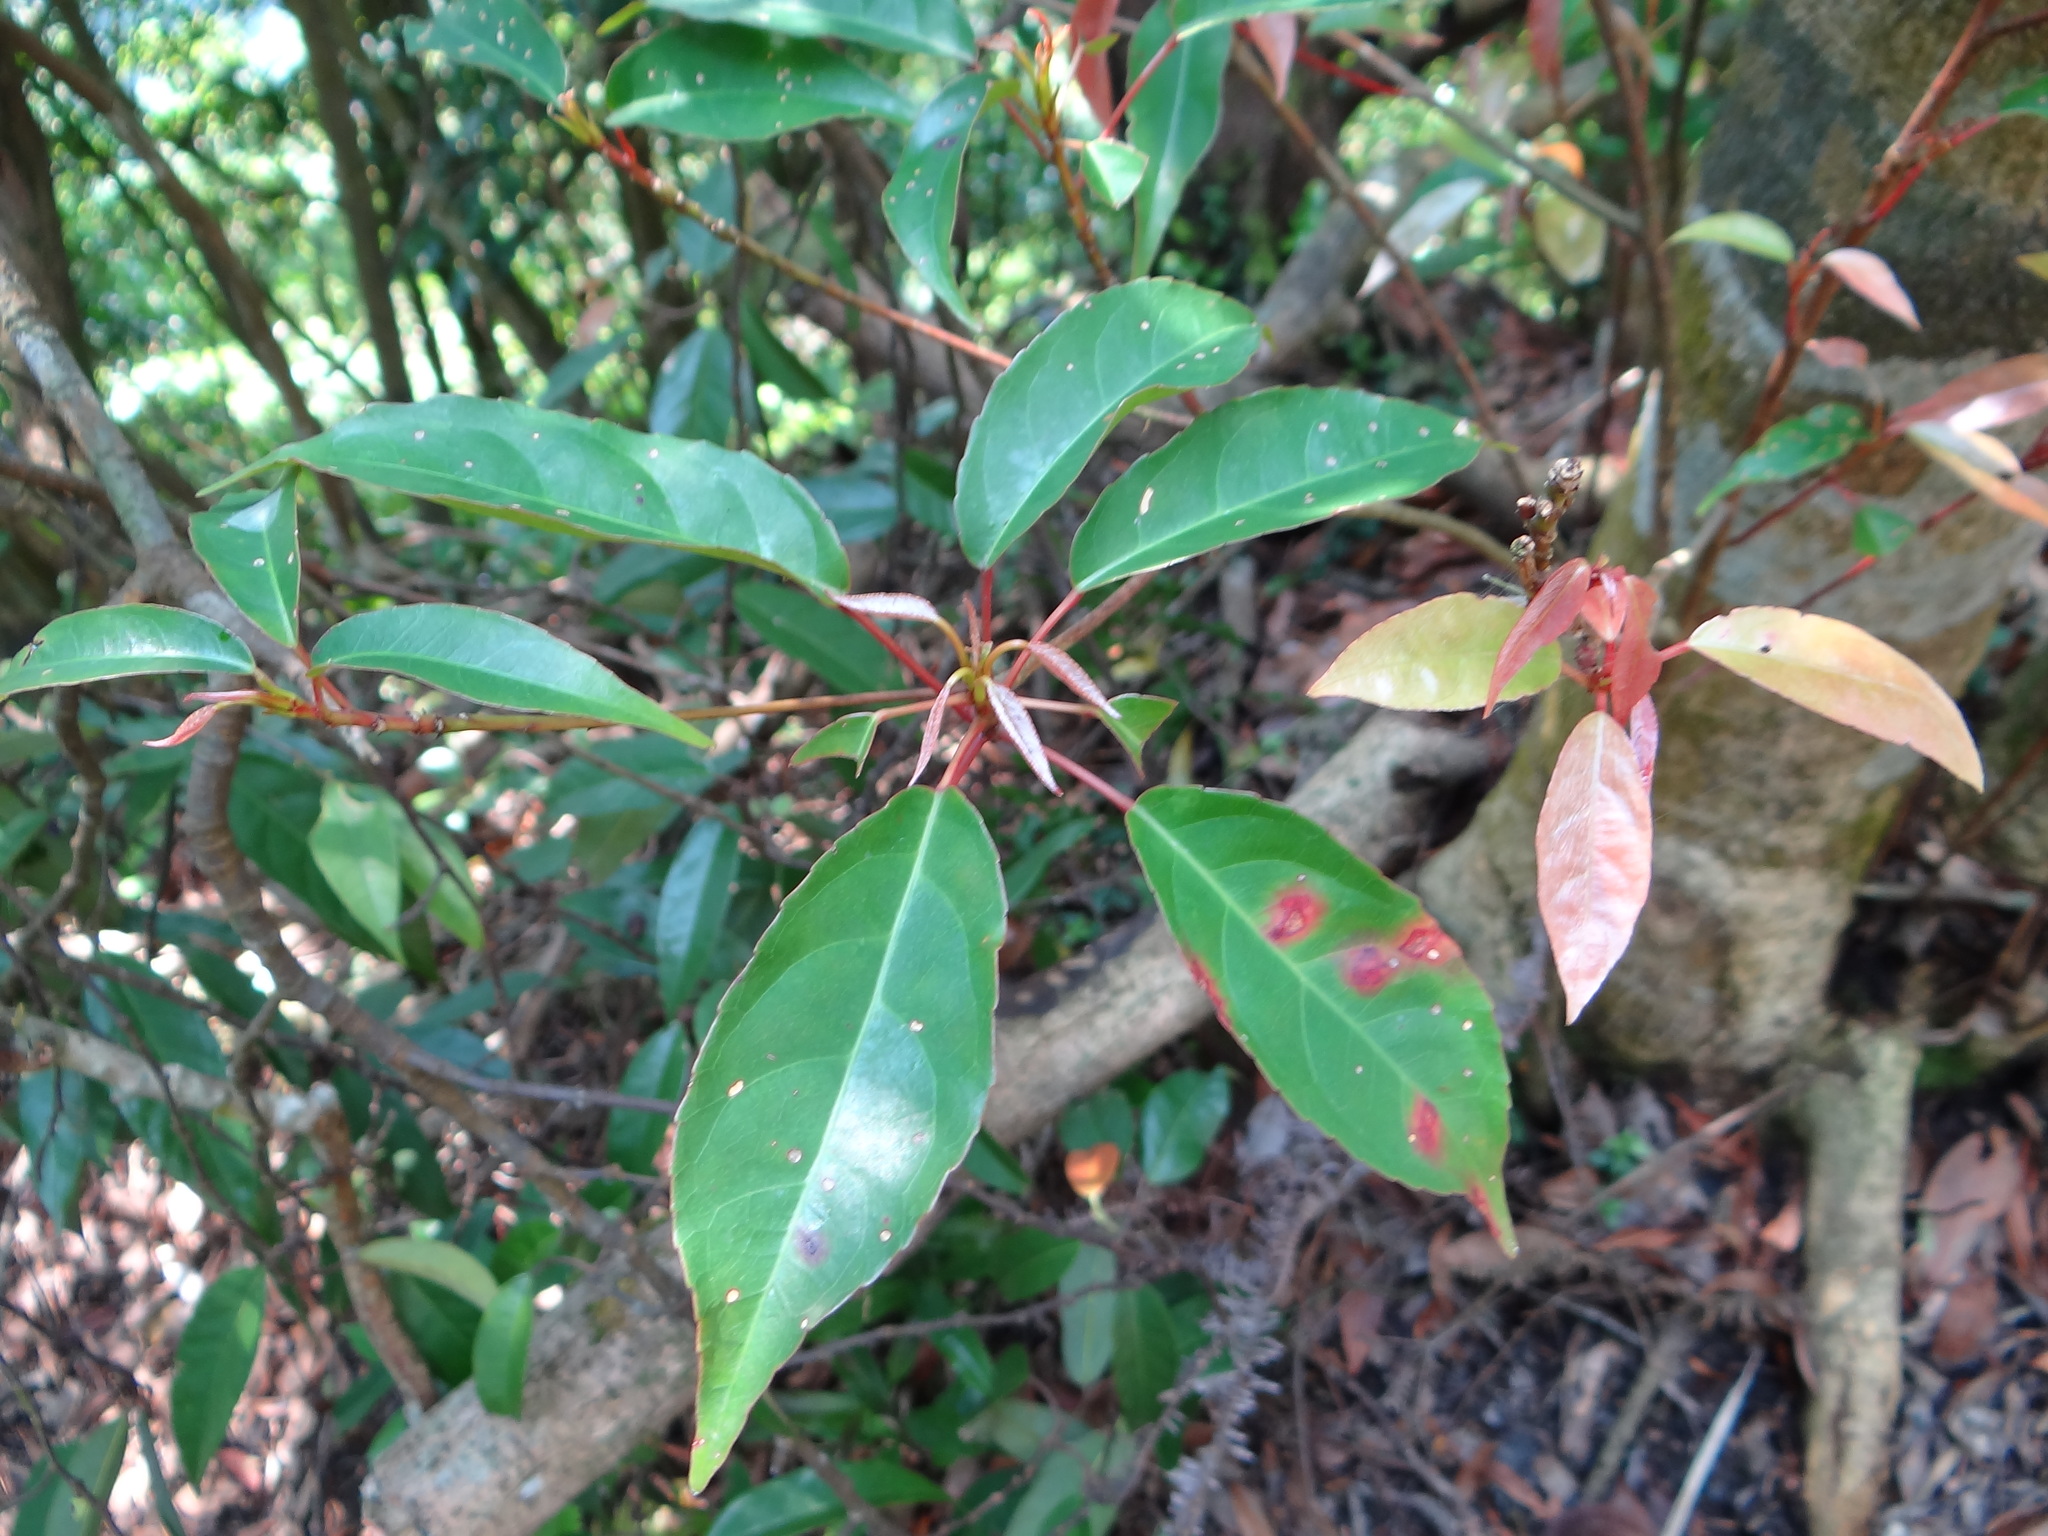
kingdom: Plantae
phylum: Tracheophyta
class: Magnoliopsida
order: Oxalidales
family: Elaeocarpaceae
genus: Elaeocarpus
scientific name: Elaeocarpus japonicus
